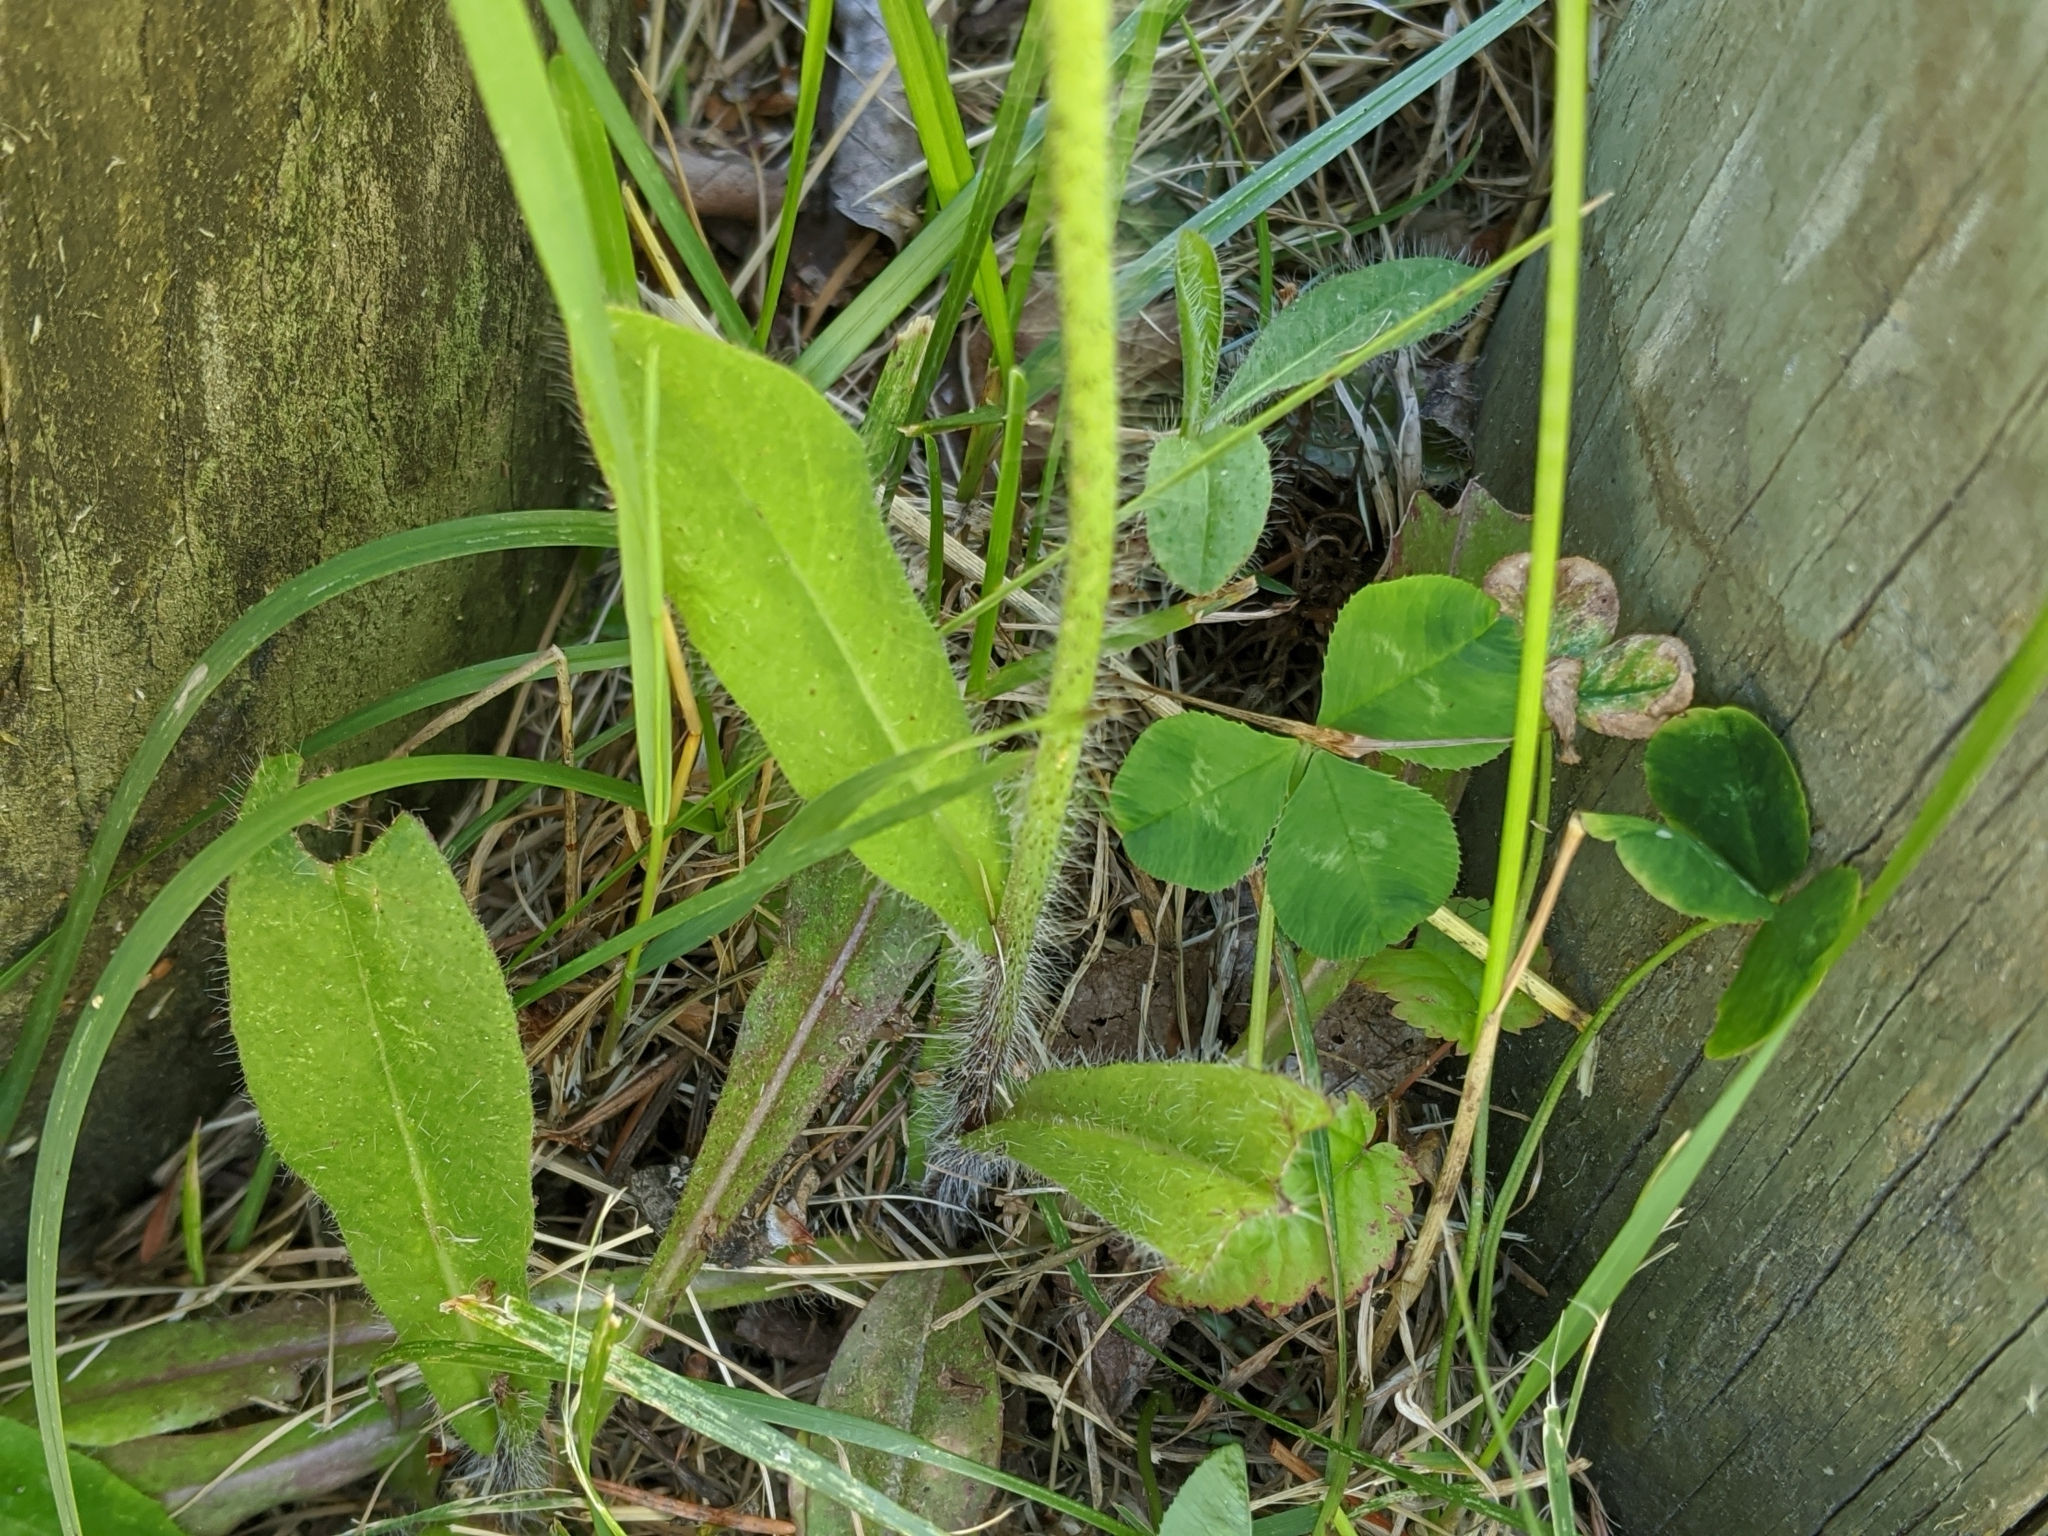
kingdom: Plantae
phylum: Tracheophyta
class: Magnoliopsida
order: Asterales
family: Asteraceae
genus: Pilosella
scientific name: Pilosella aurantiaca
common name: Fox-and-cubs
